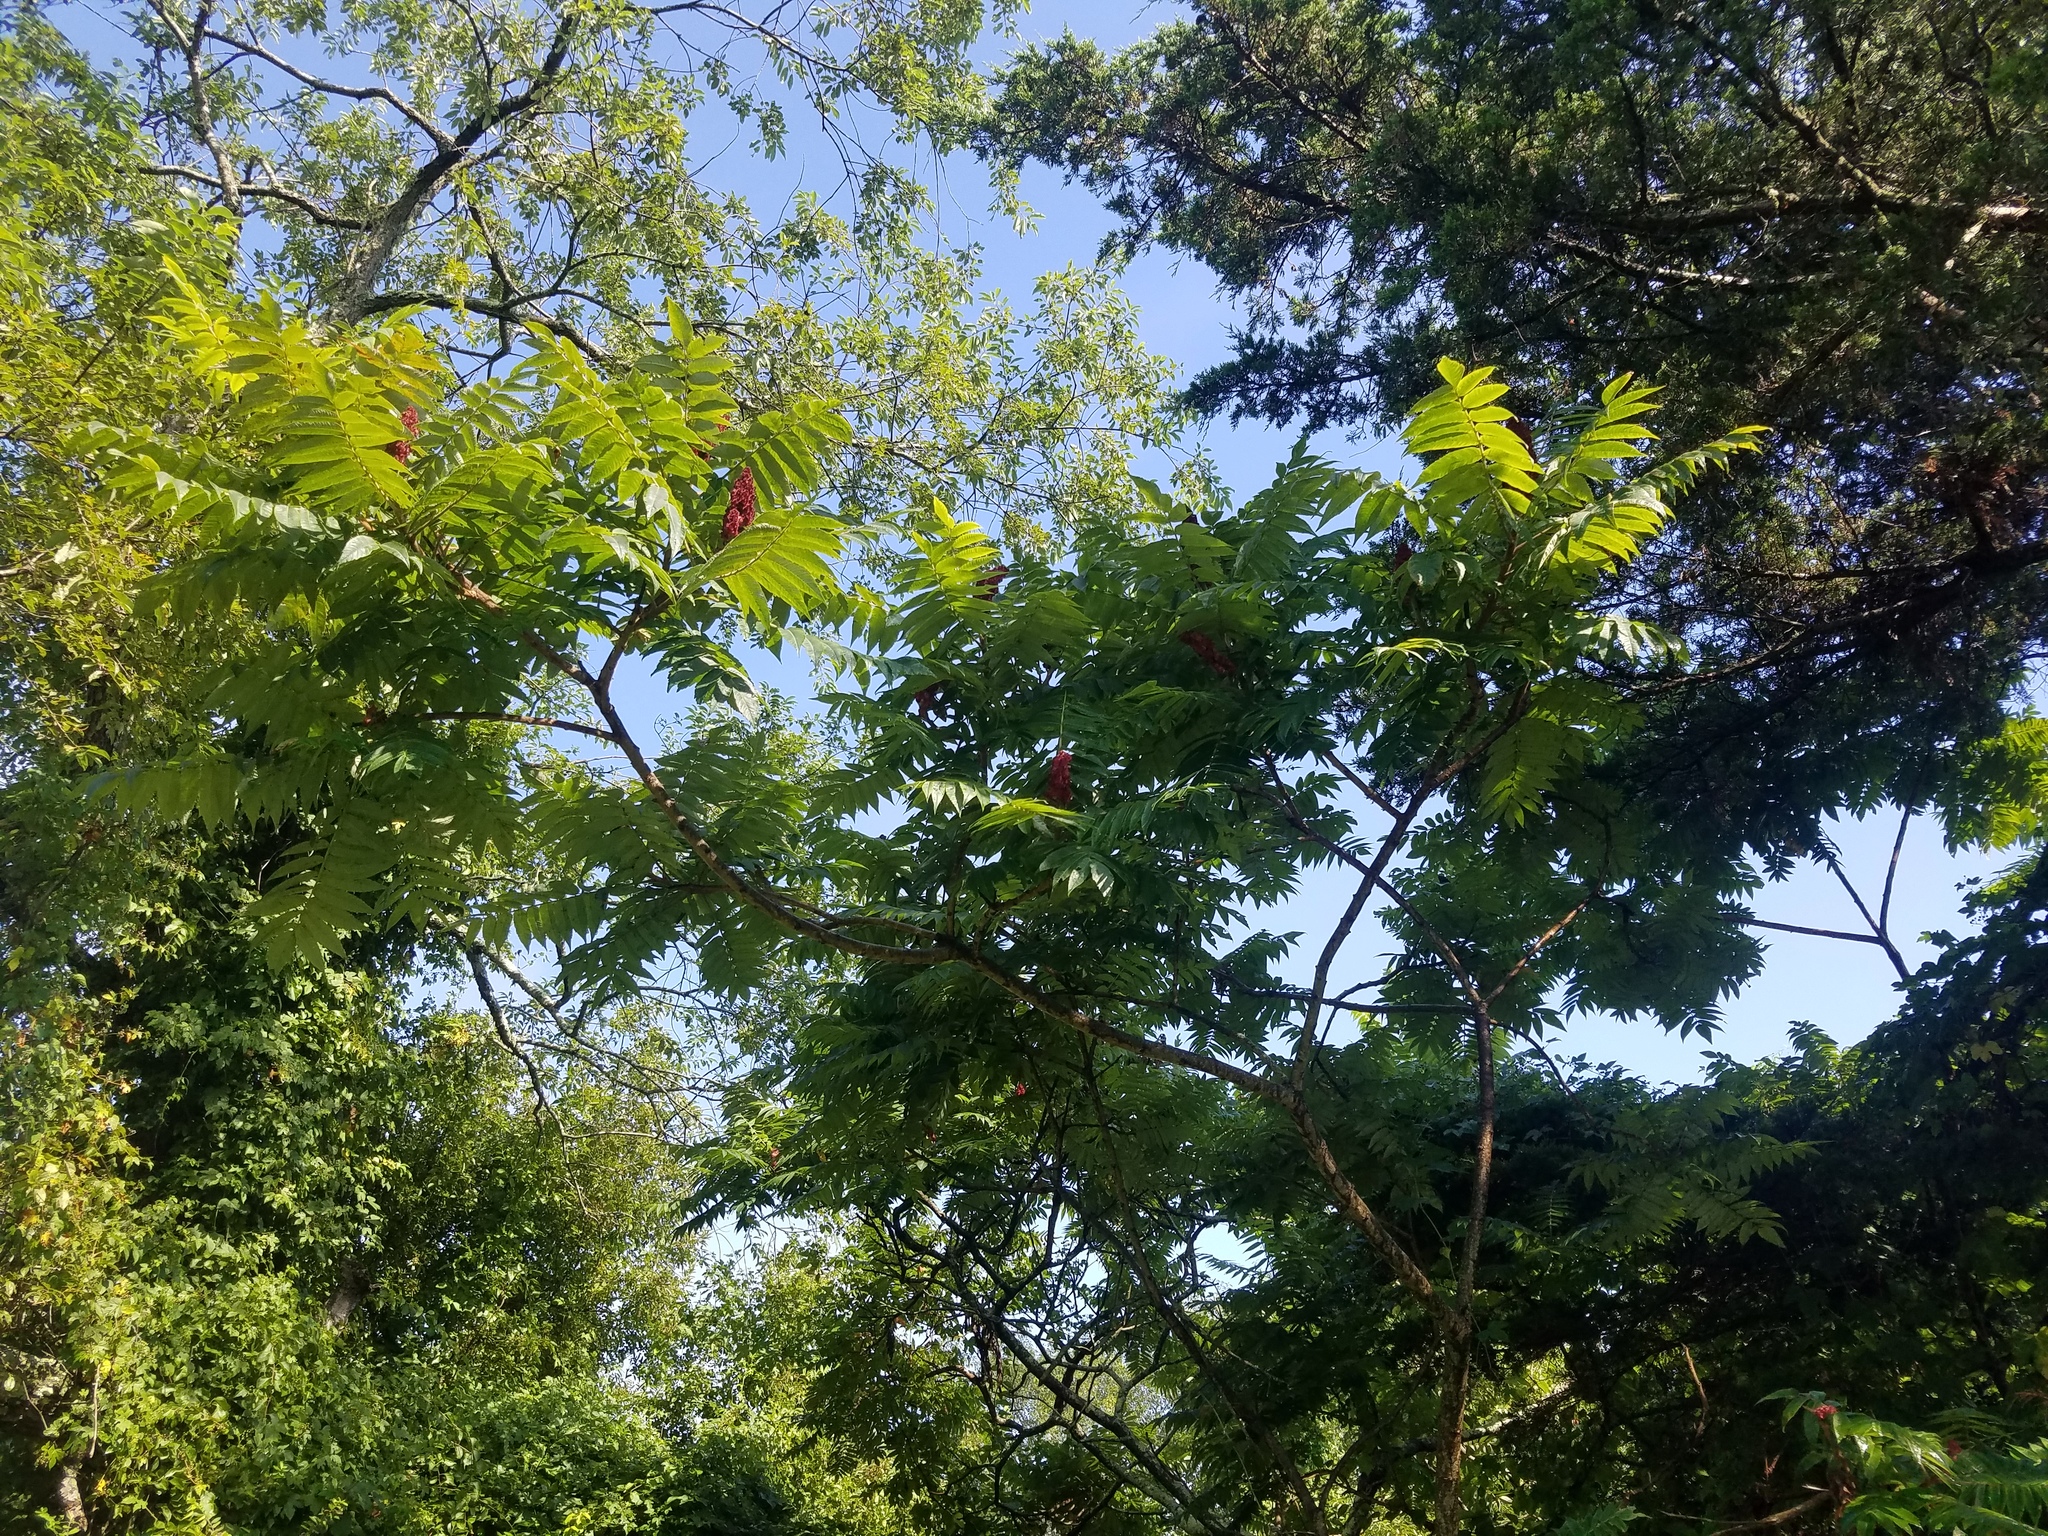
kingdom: Plantae
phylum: Tracheophyta
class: Magnoliopsida
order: Sapindales
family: Anacardiaceae
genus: Rhus
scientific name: Rhus typhina
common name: Staghorn sumac
